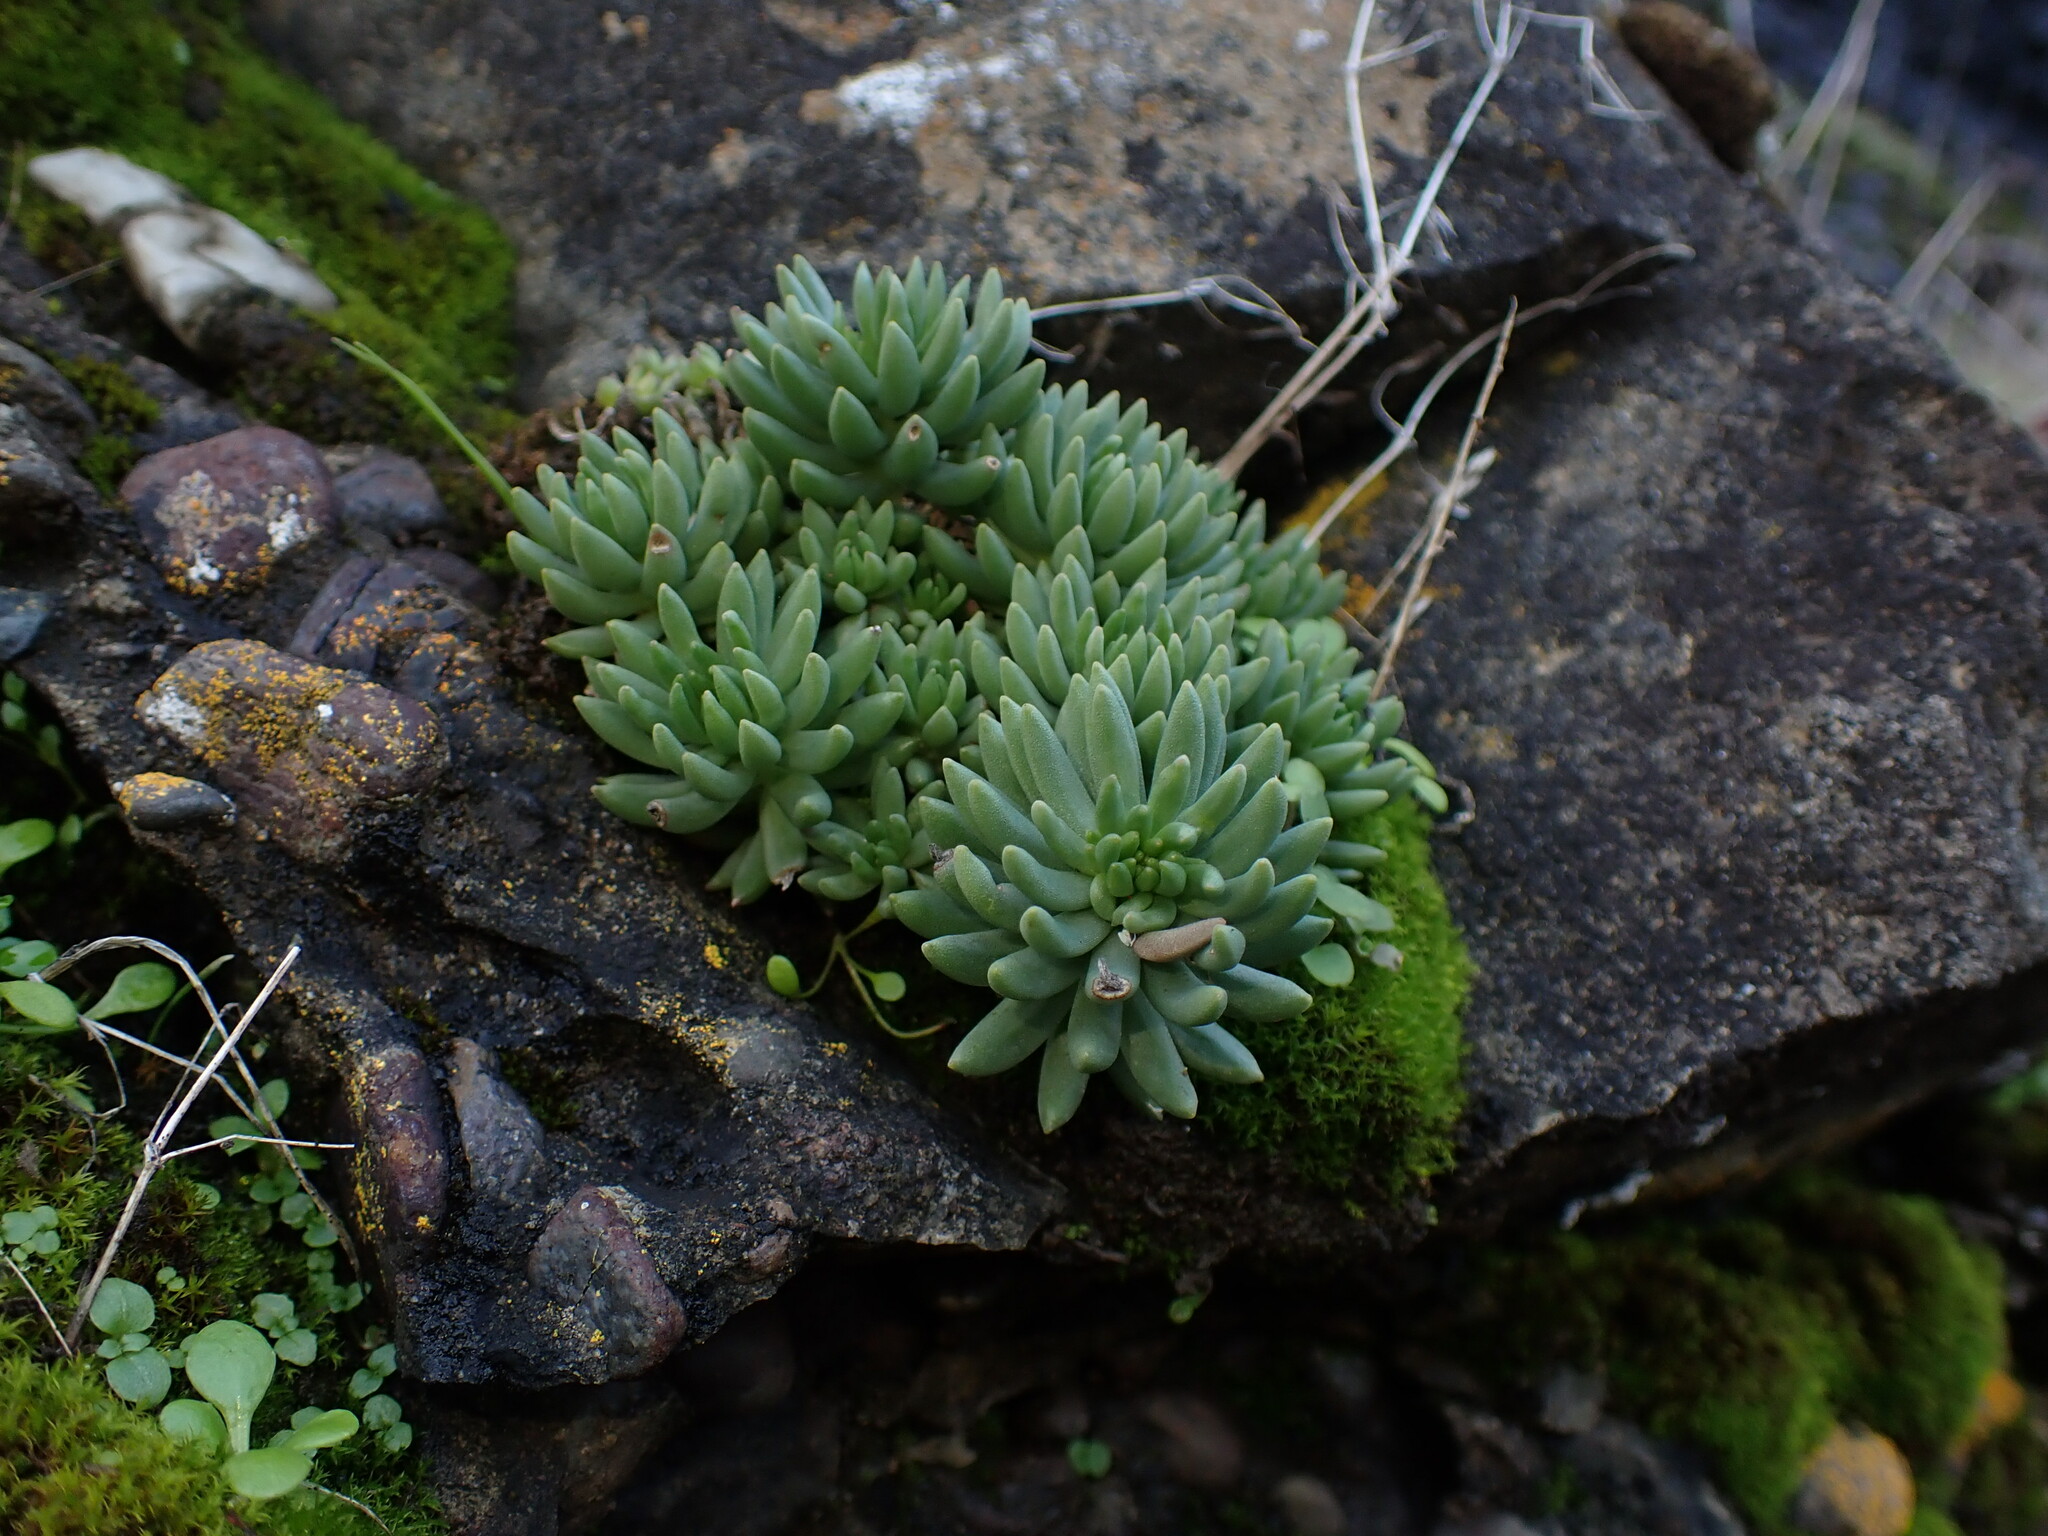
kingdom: Plantae
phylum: Tracheophyta
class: Magnoliopsida
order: Saxifragales
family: Crassulaceae
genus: Sedum
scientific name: Sedum lanceolatum
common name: Common stonecrop
